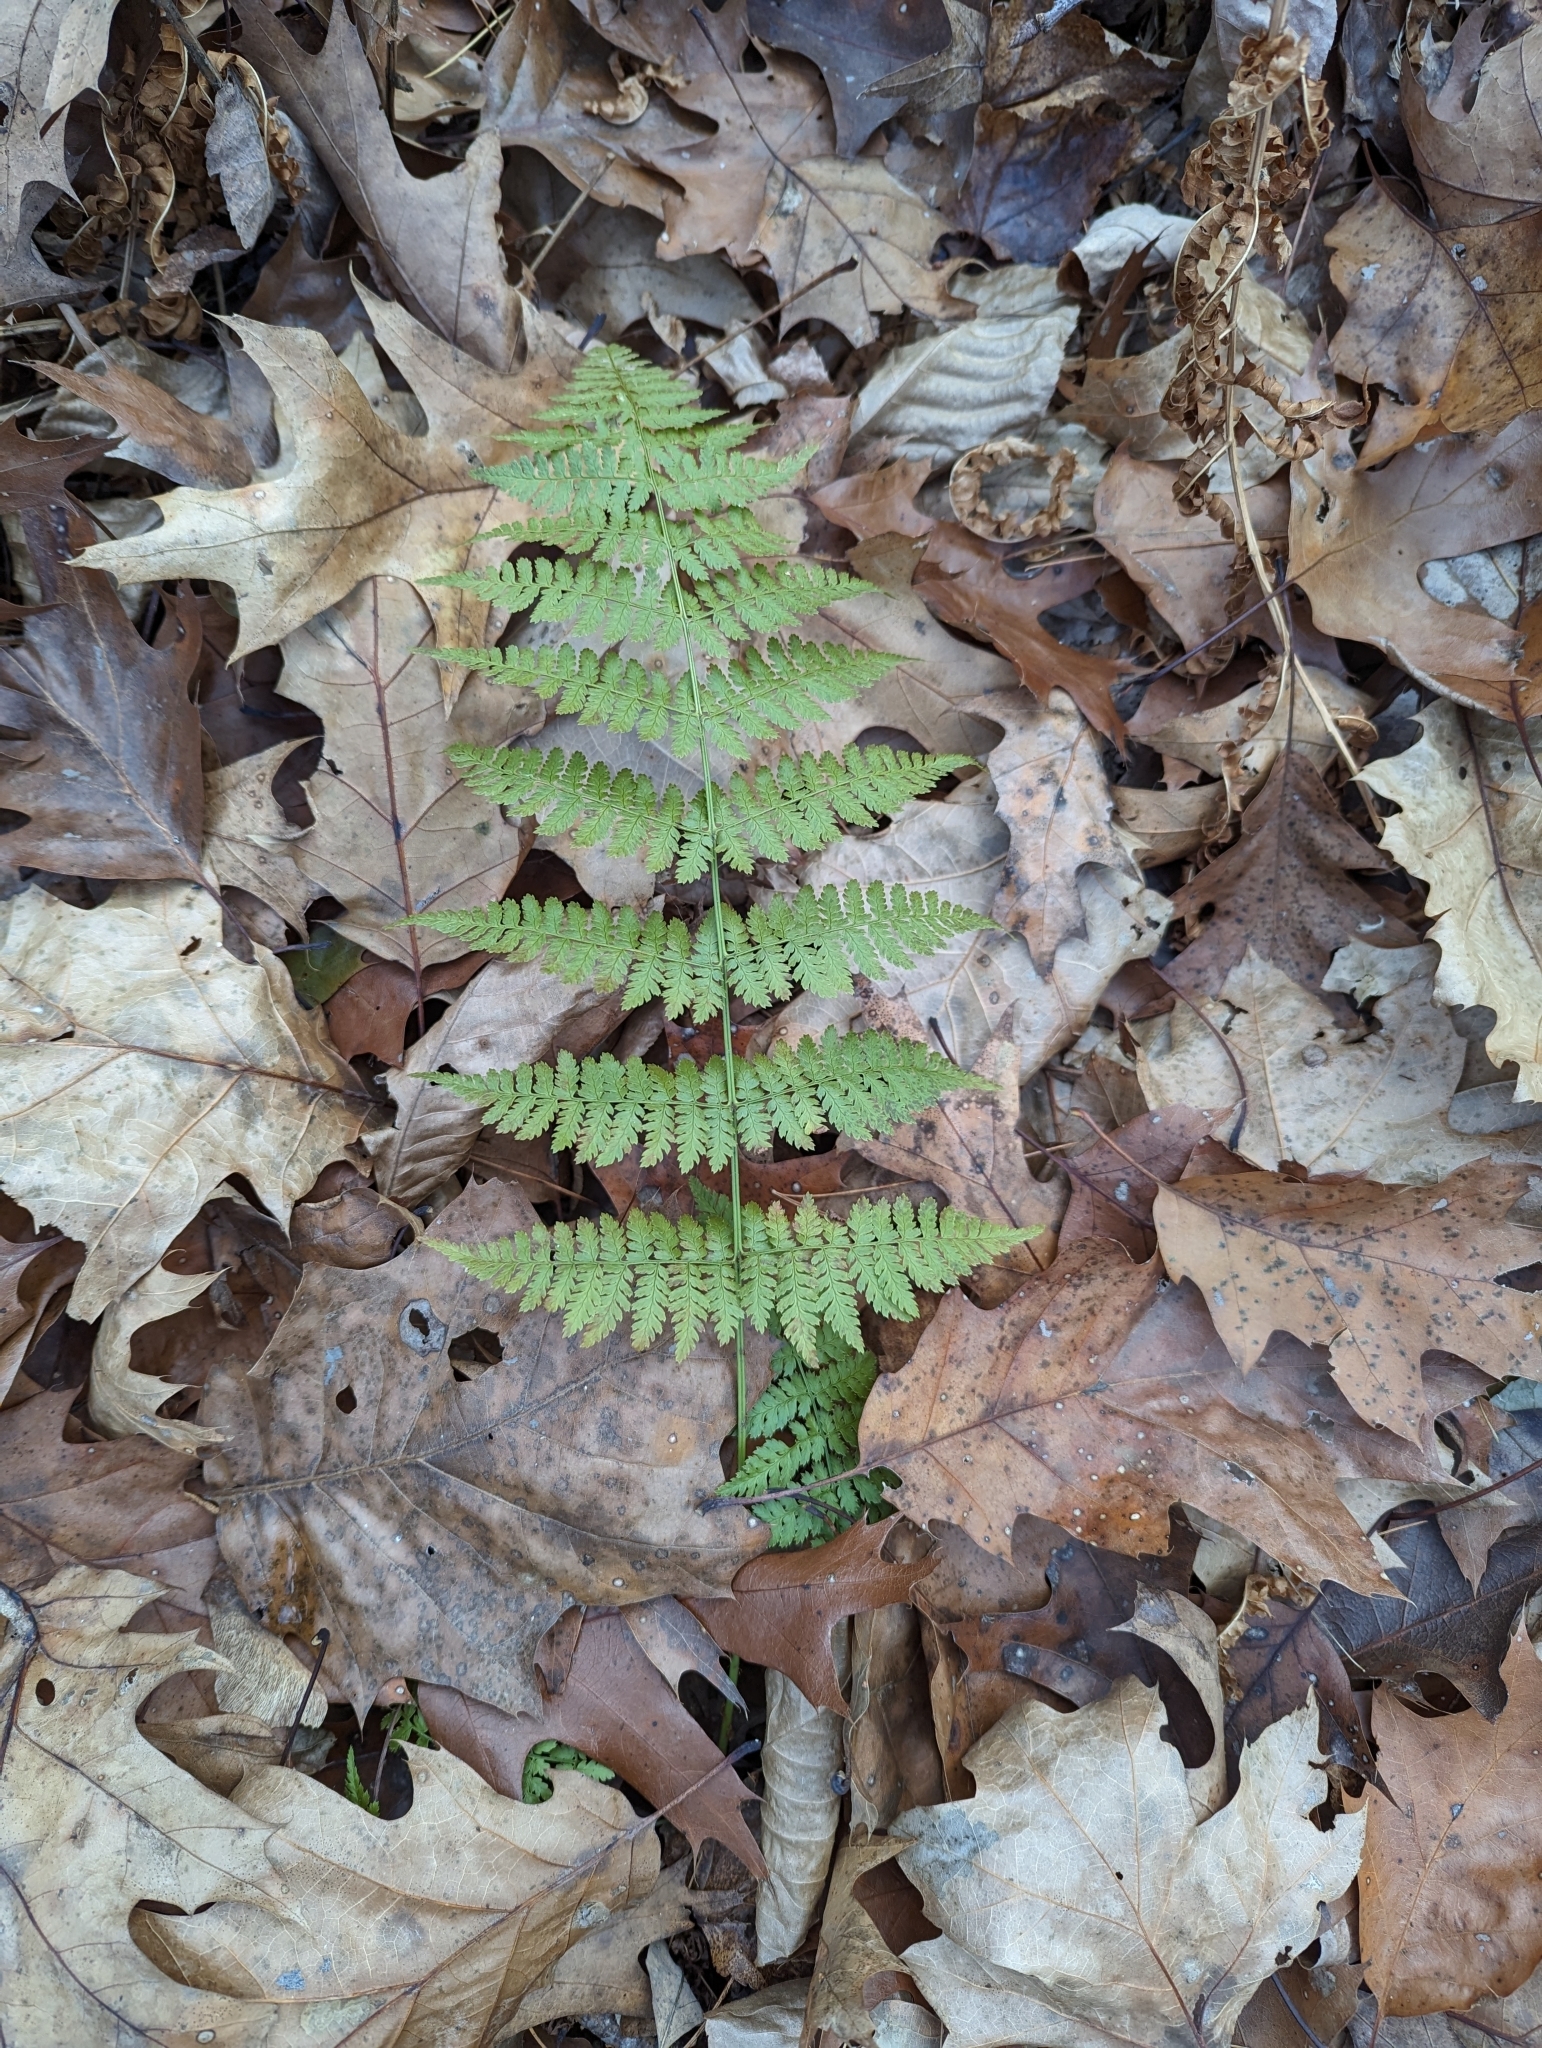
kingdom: Plantae
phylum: Tracheophyta
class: Polypodiopsida
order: Polypodiales
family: Dryopteridaceae
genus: Dryopteris
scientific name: Dryopteris intermedia
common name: Evergreen wood fern
